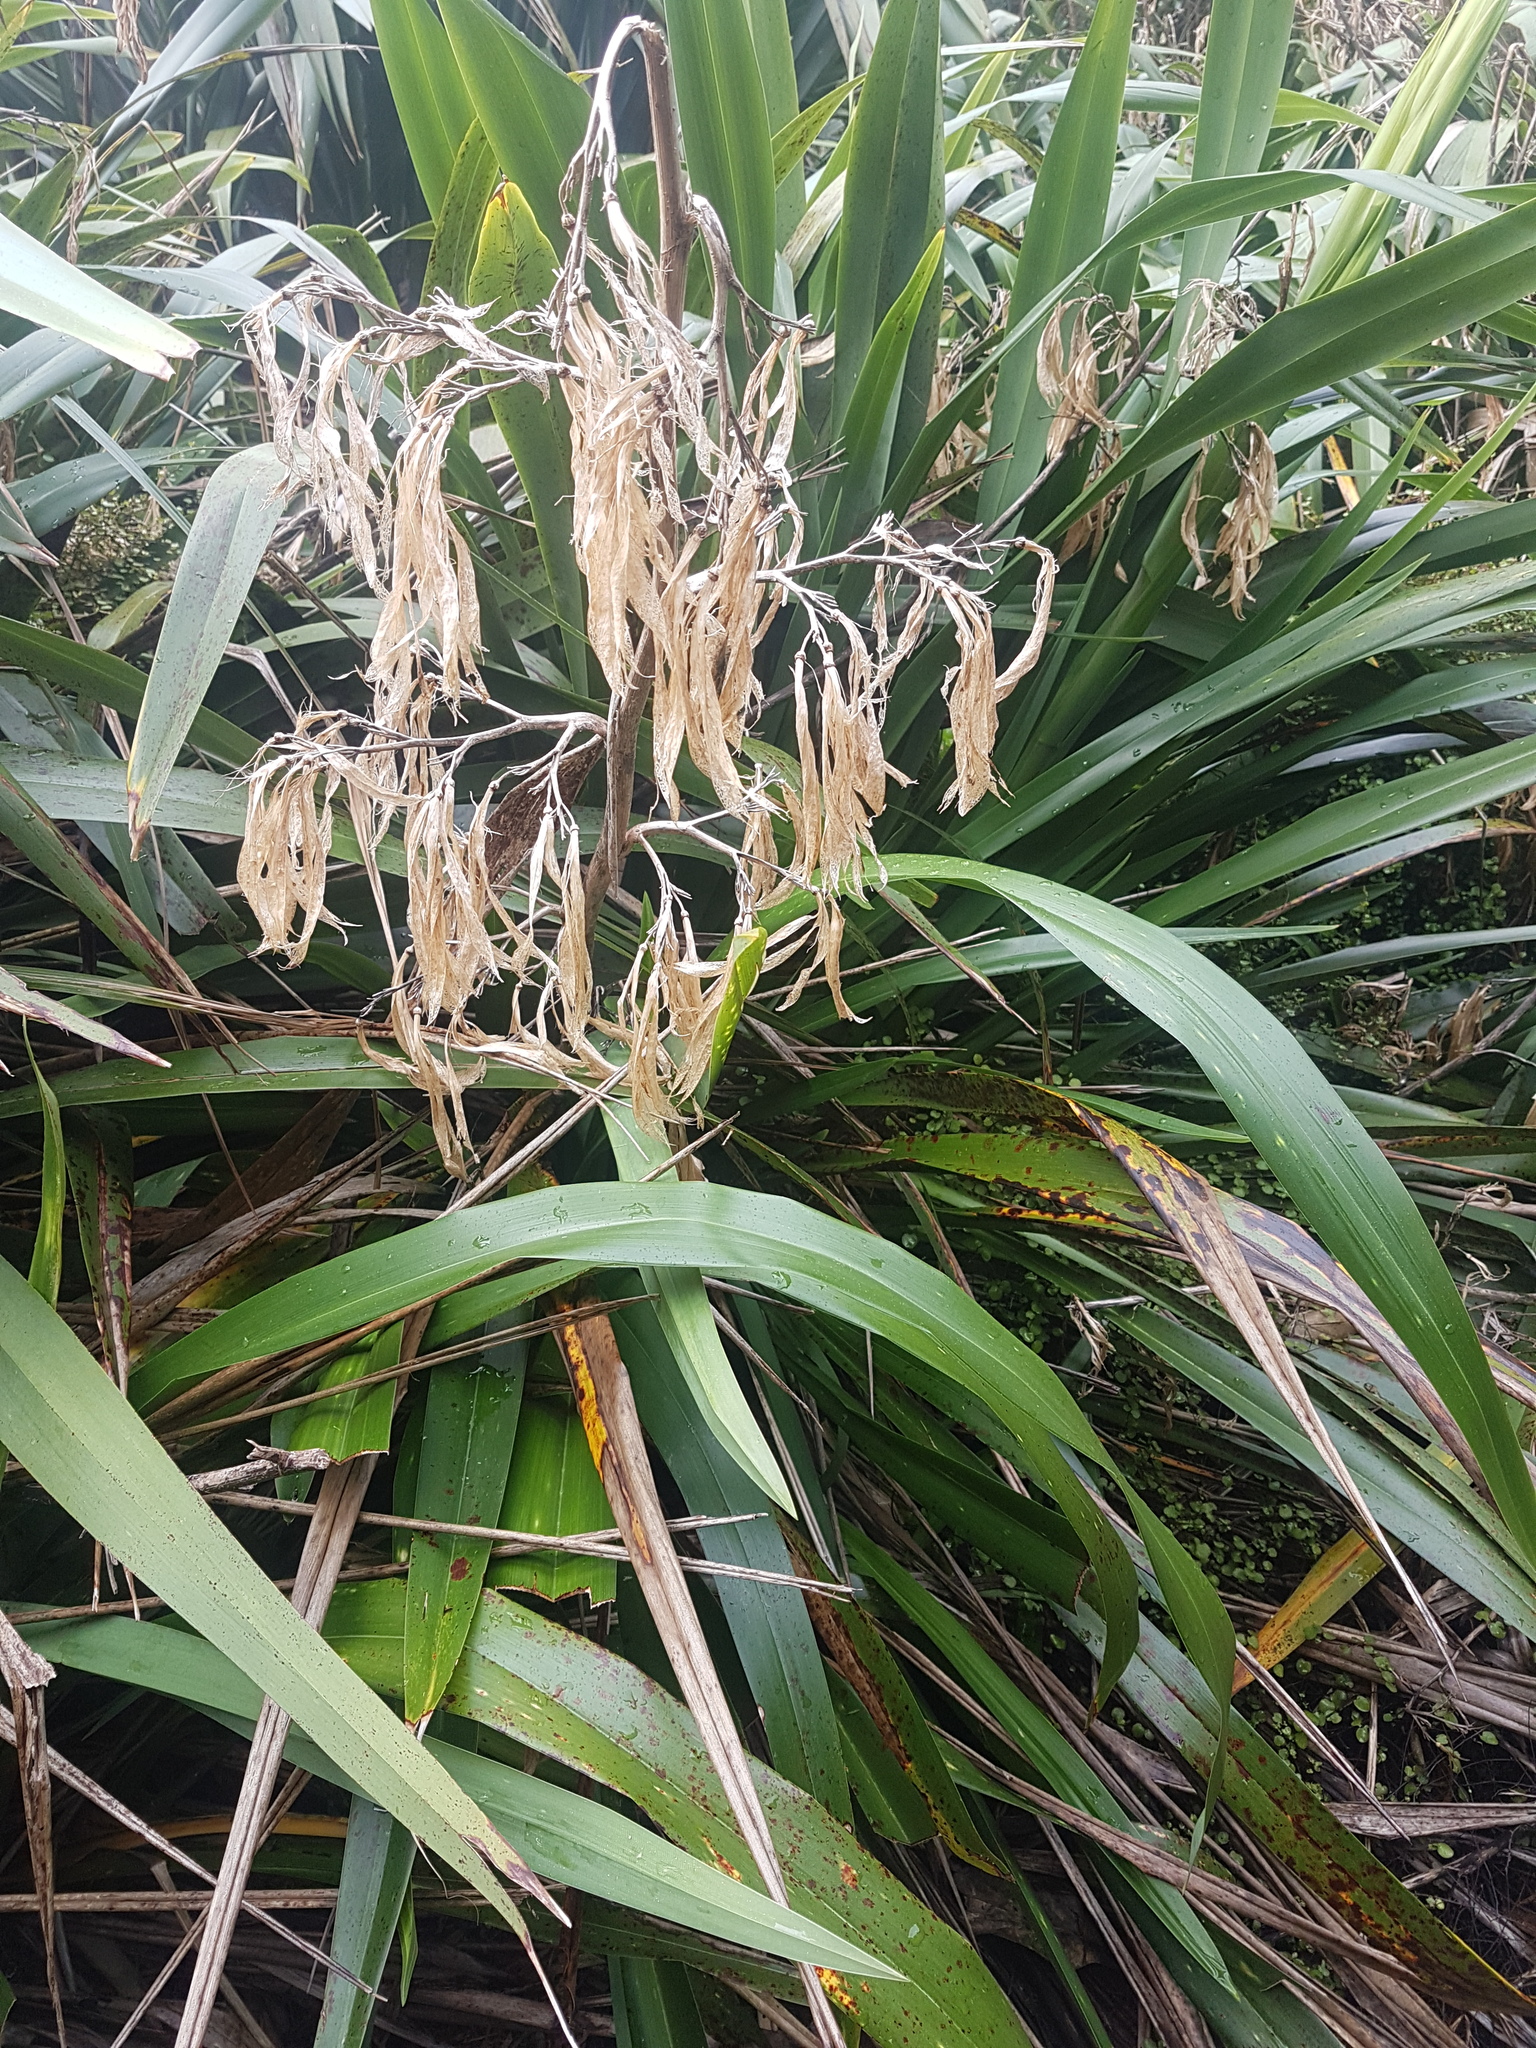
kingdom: Plantae
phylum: Tracheophyta
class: Liliopsida
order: Asparagales
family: Asphodelaceae
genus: Phormium
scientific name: Phormium colensoi
